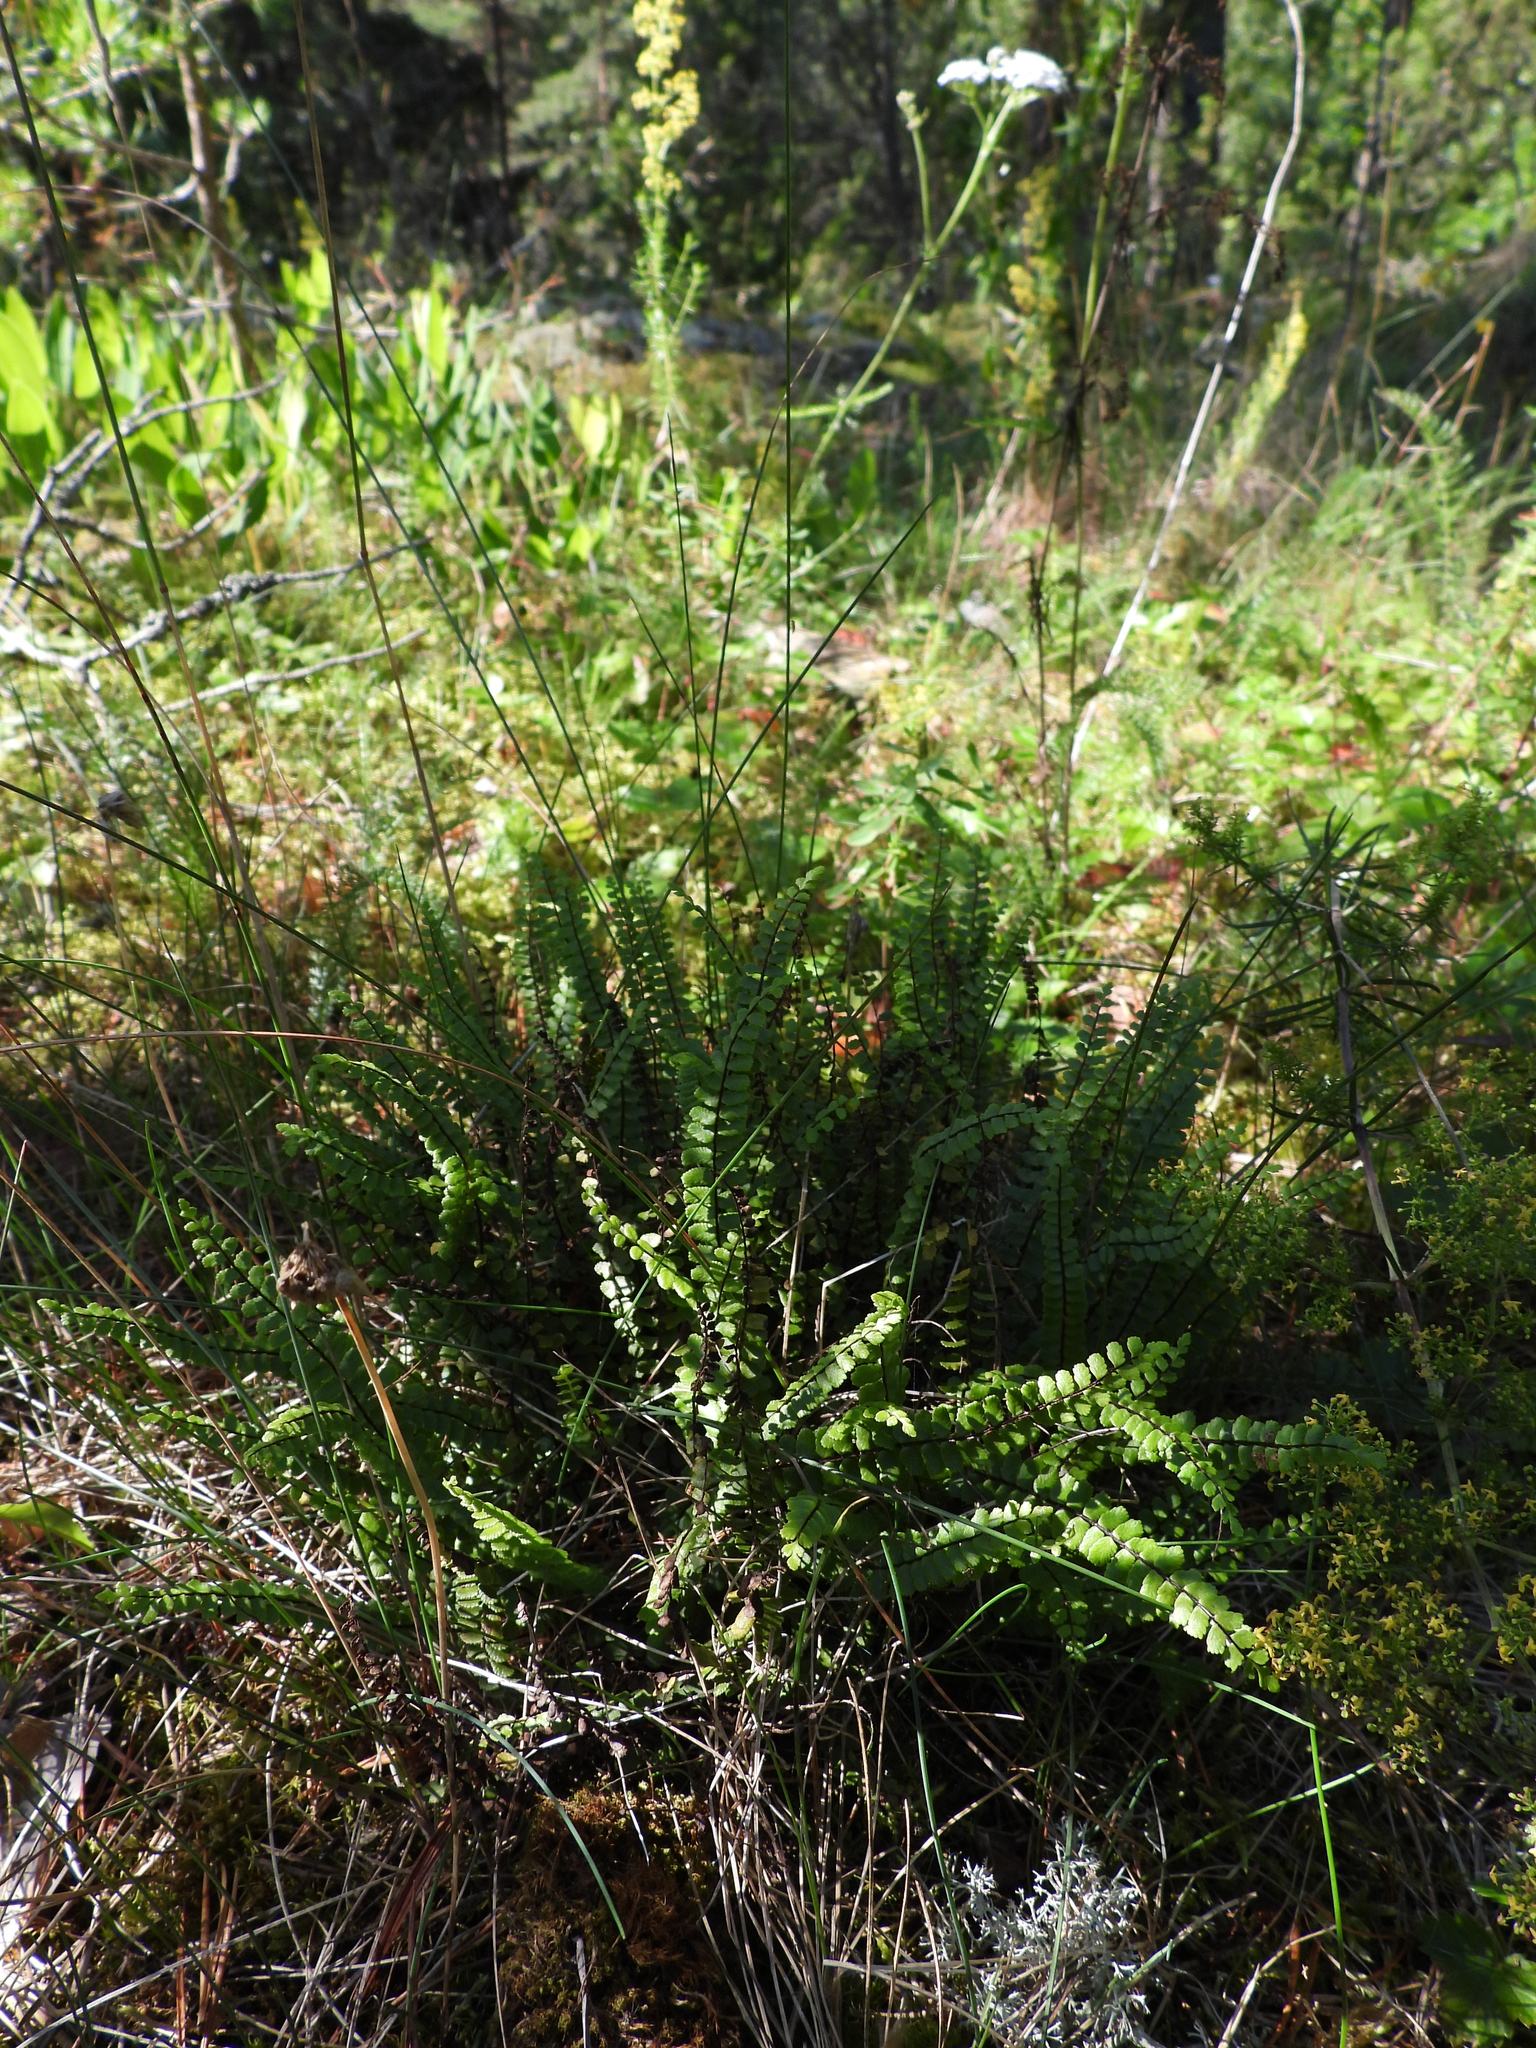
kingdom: Plantae
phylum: Tracheophyta
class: Polypodiopsida
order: Polypodiales
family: Aspleniaceae
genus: Asplenium
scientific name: Asplenium trichomanes
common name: Maidenhair spleenwort
